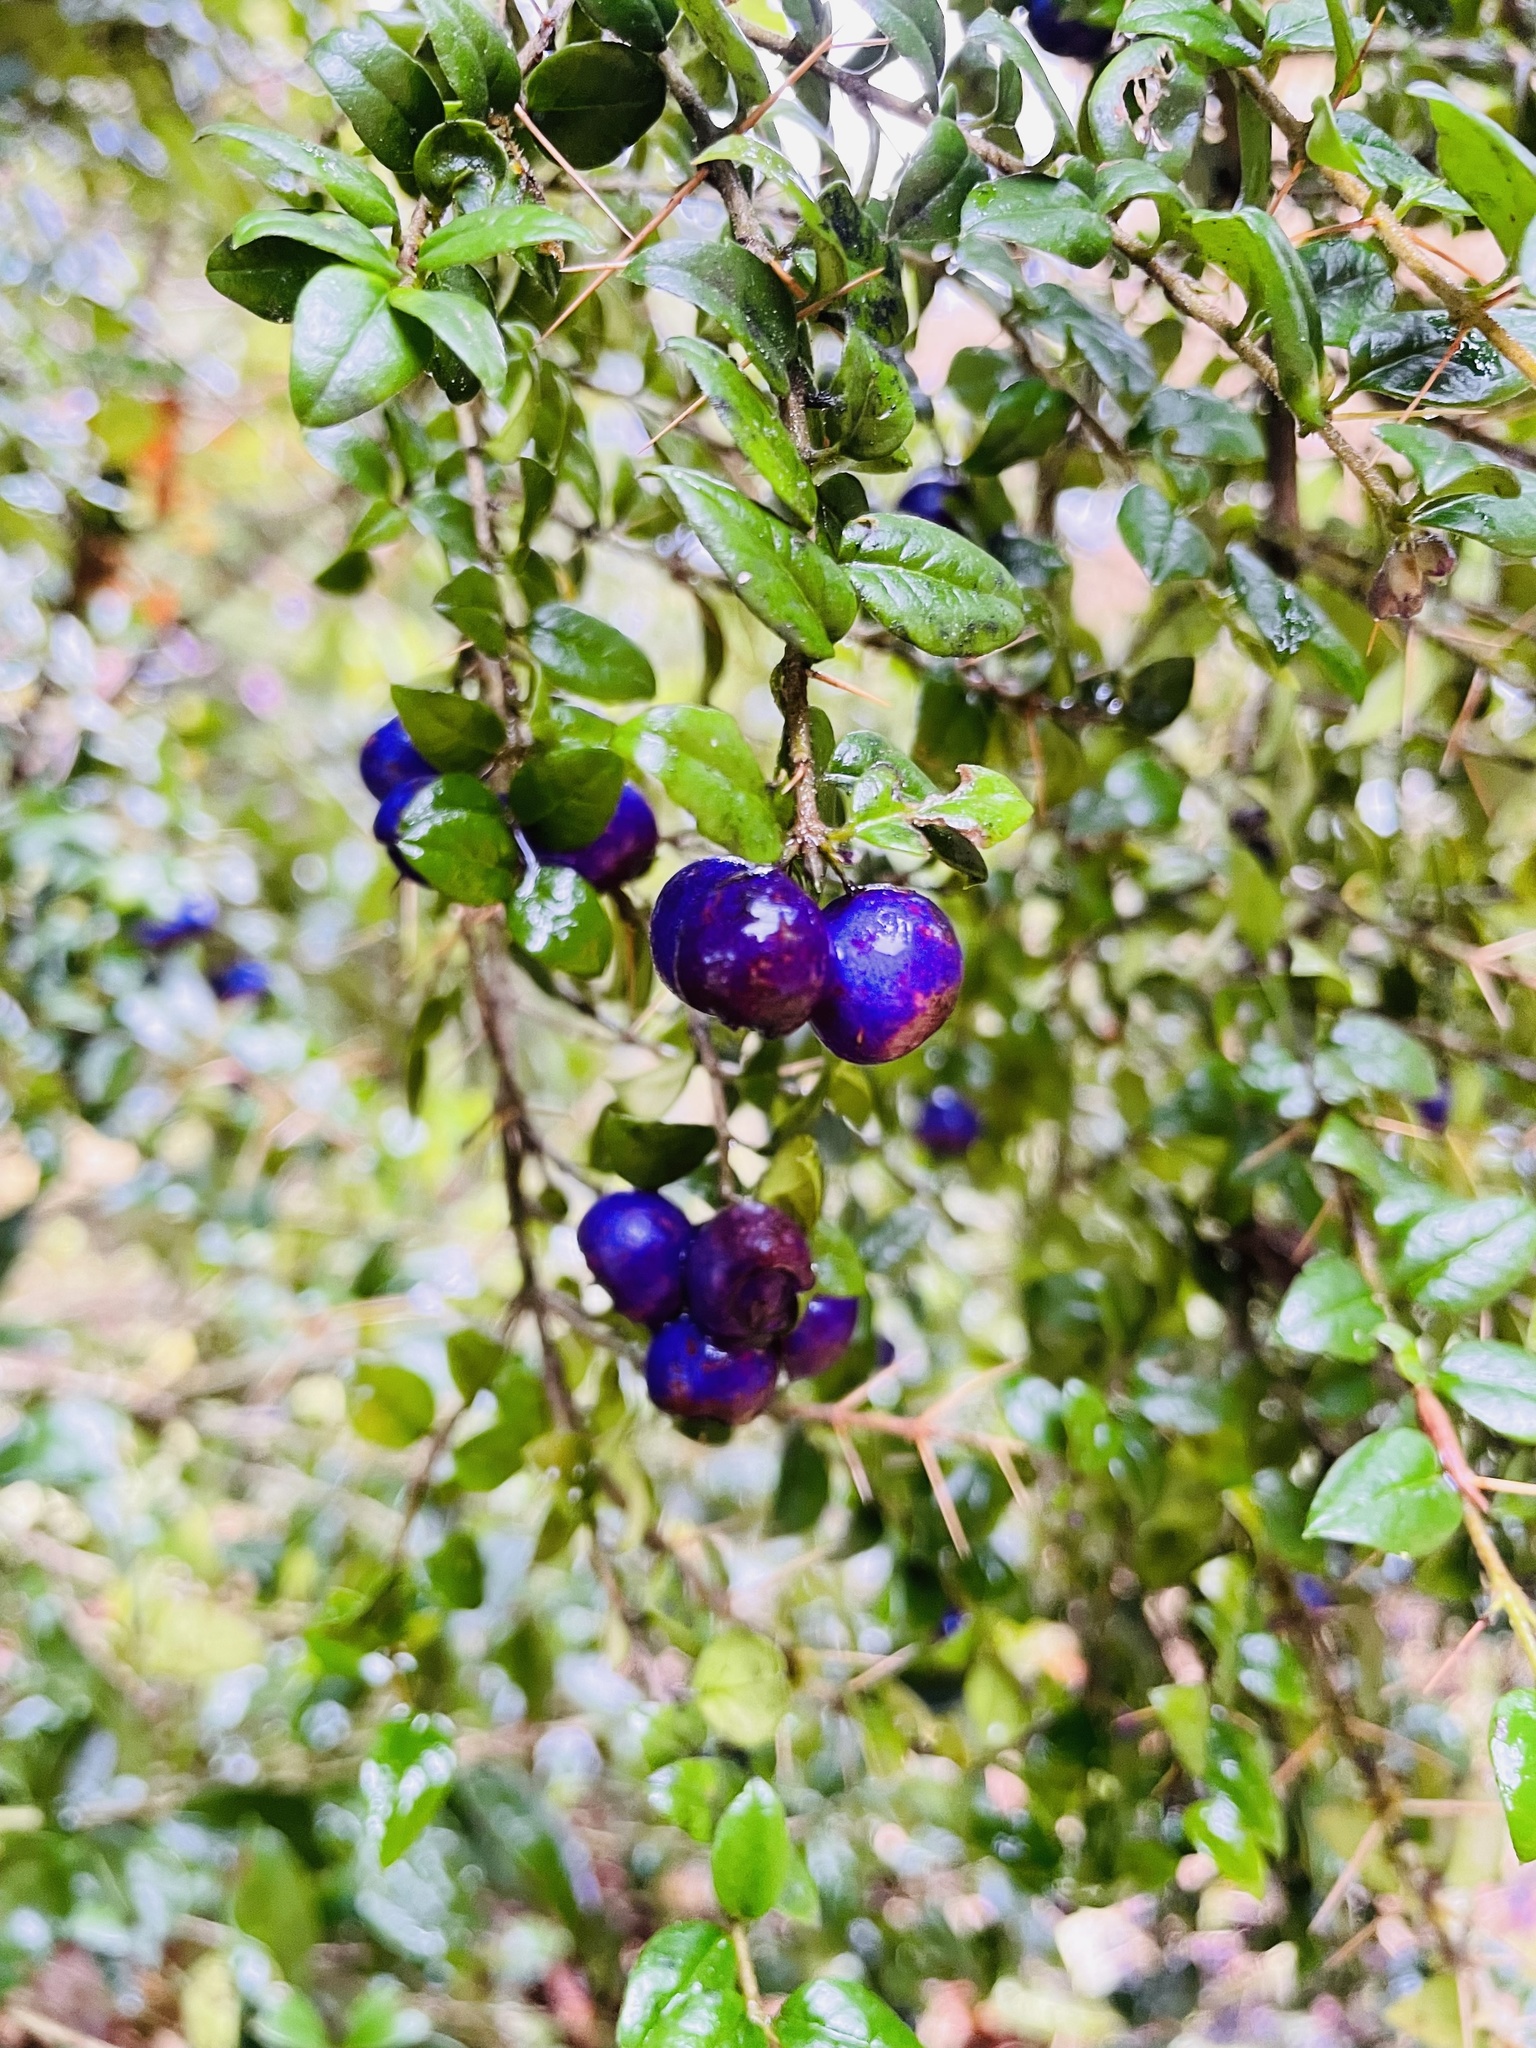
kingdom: Plantae
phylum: Tracheophyta
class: Magnoliopsida
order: Lamiales
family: Verbenaceae
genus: Rhaphithamnus
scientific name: Rhaphithamnus spinosus
